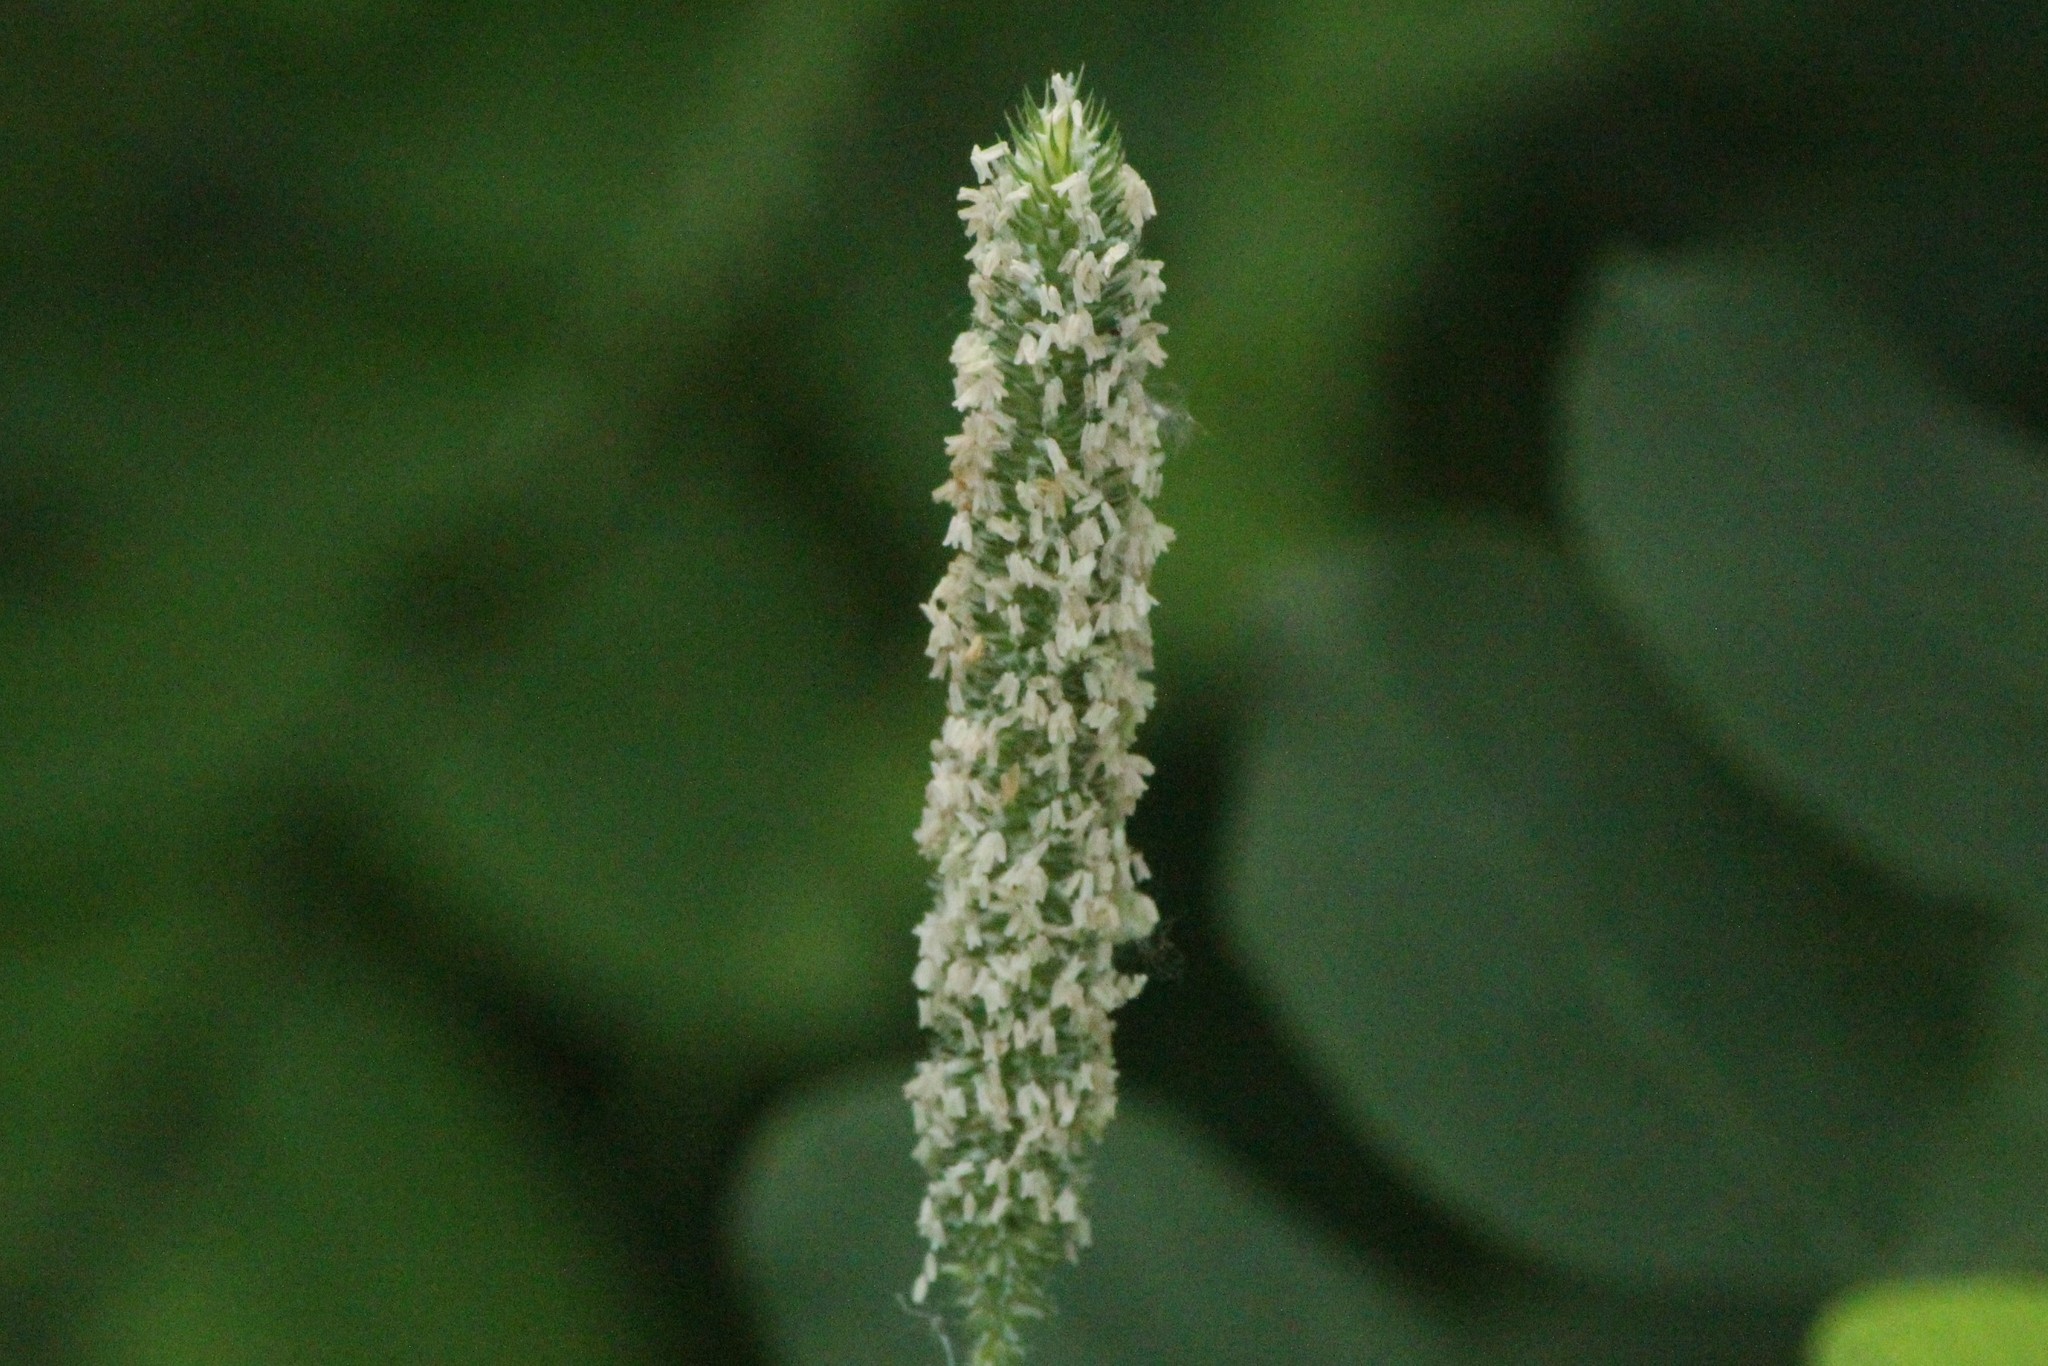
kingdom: Plantae
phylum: Tracheophyta
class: Liliopsida
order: Poales
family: Poaceae
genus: Phleum
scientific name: Phleum pratense
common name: Timothy grass
